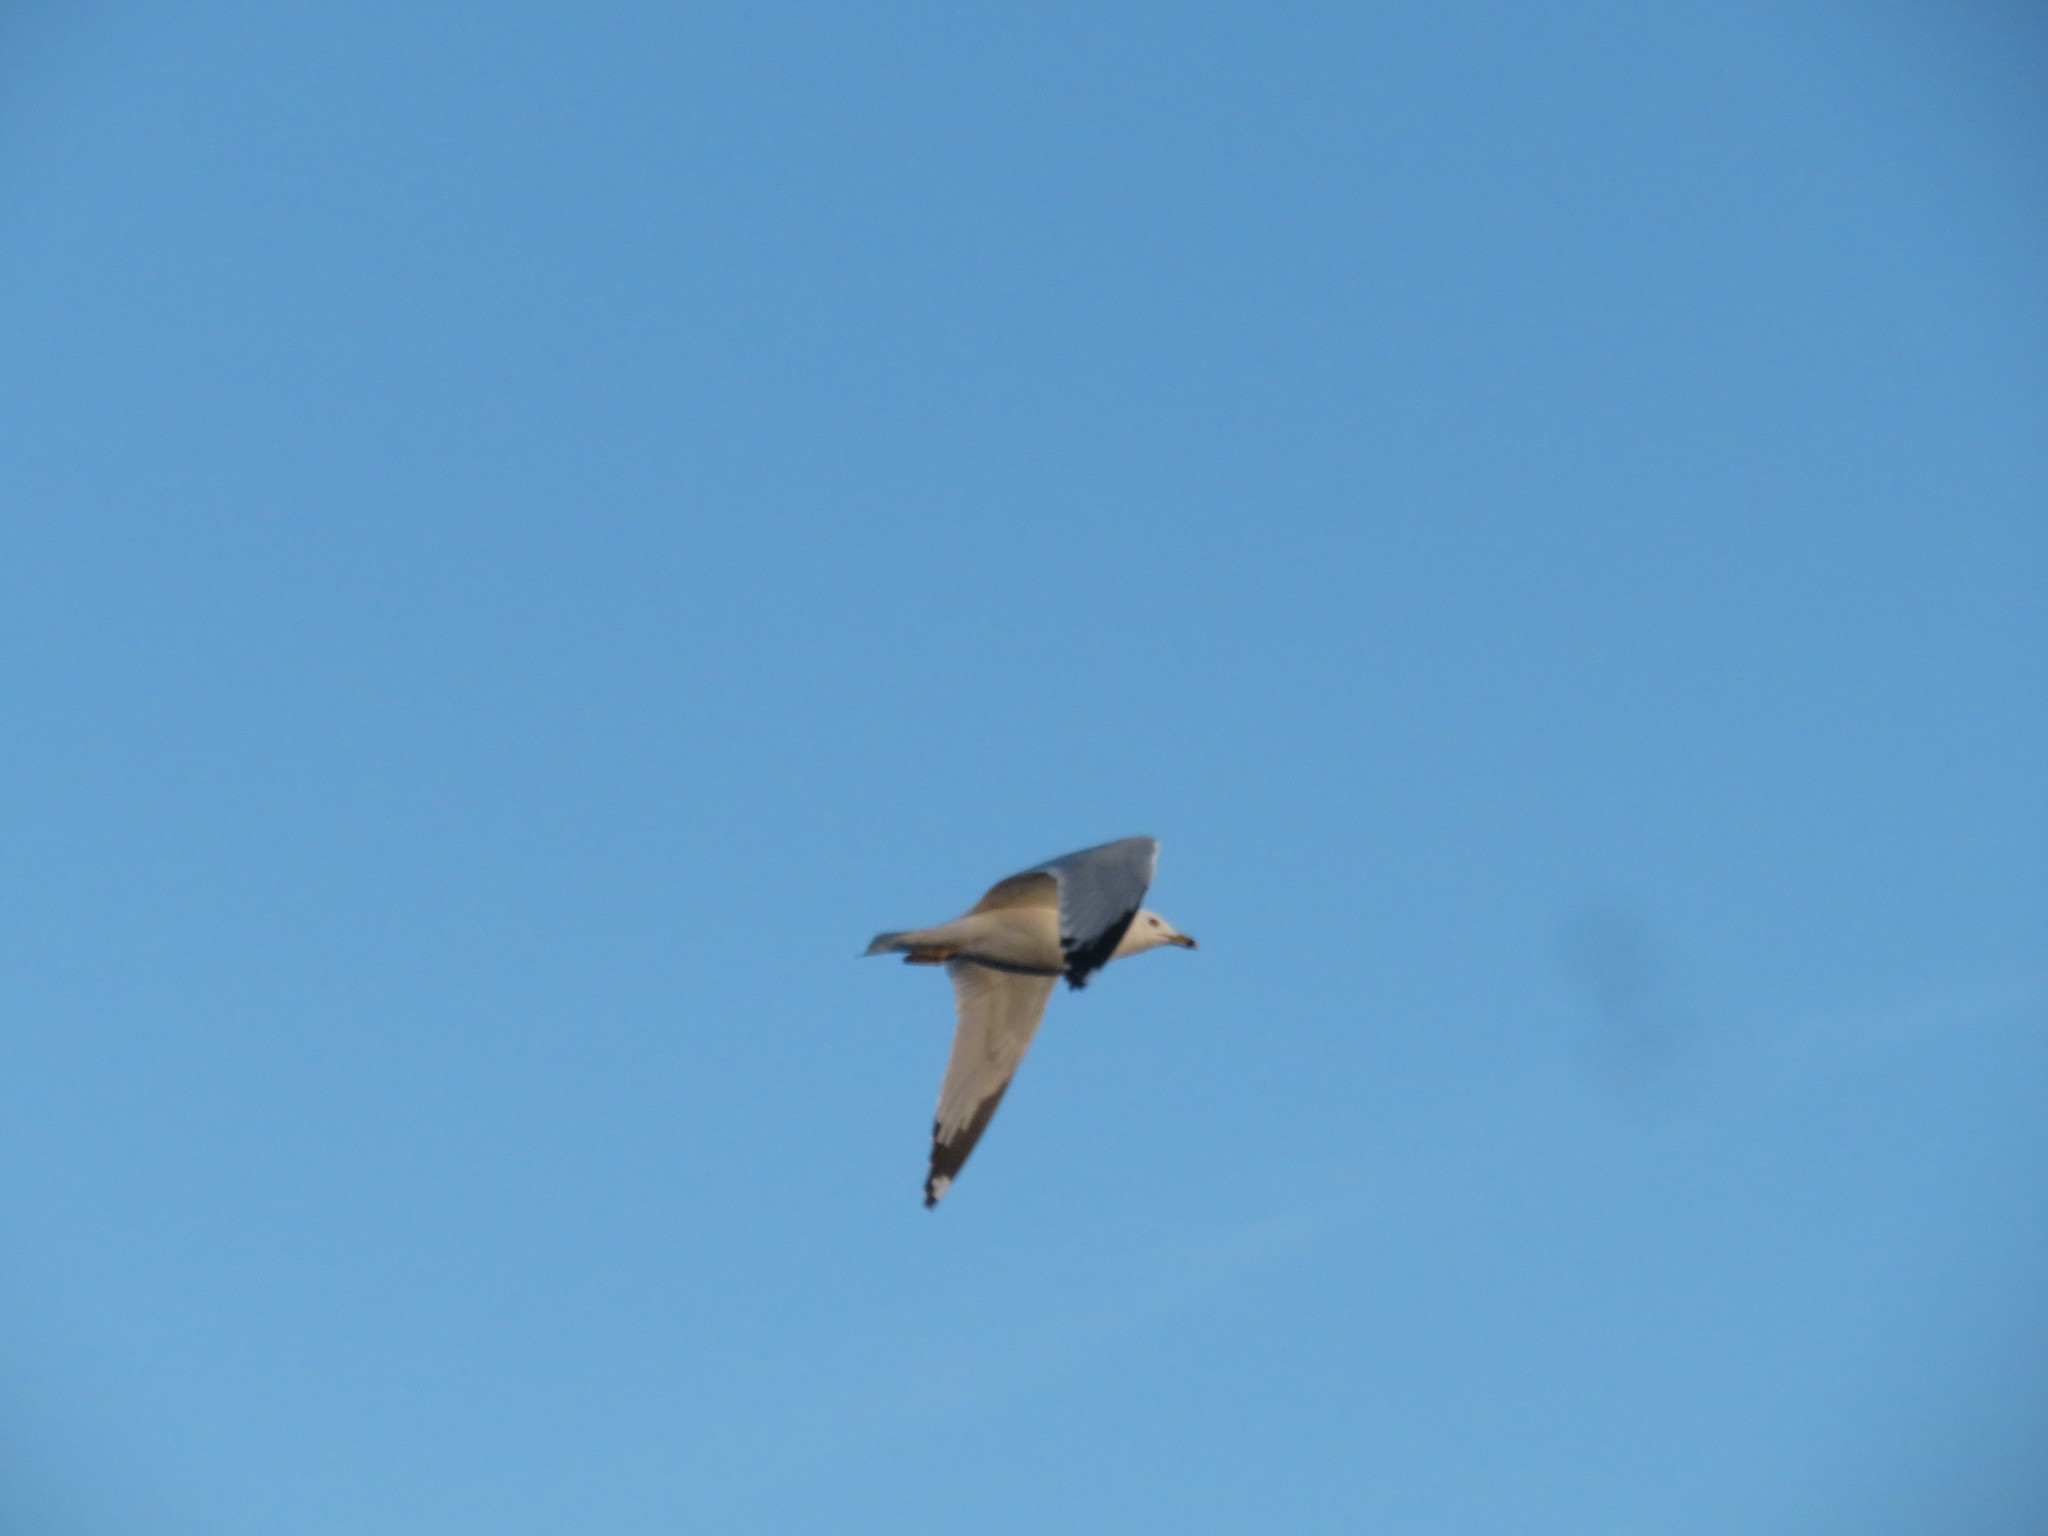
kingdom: Animalia
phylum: Chordata
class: Aves
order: Charadriiformes
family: Laridae
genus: Larus
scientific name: Larus delawarensis
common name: Ring-billed gull
